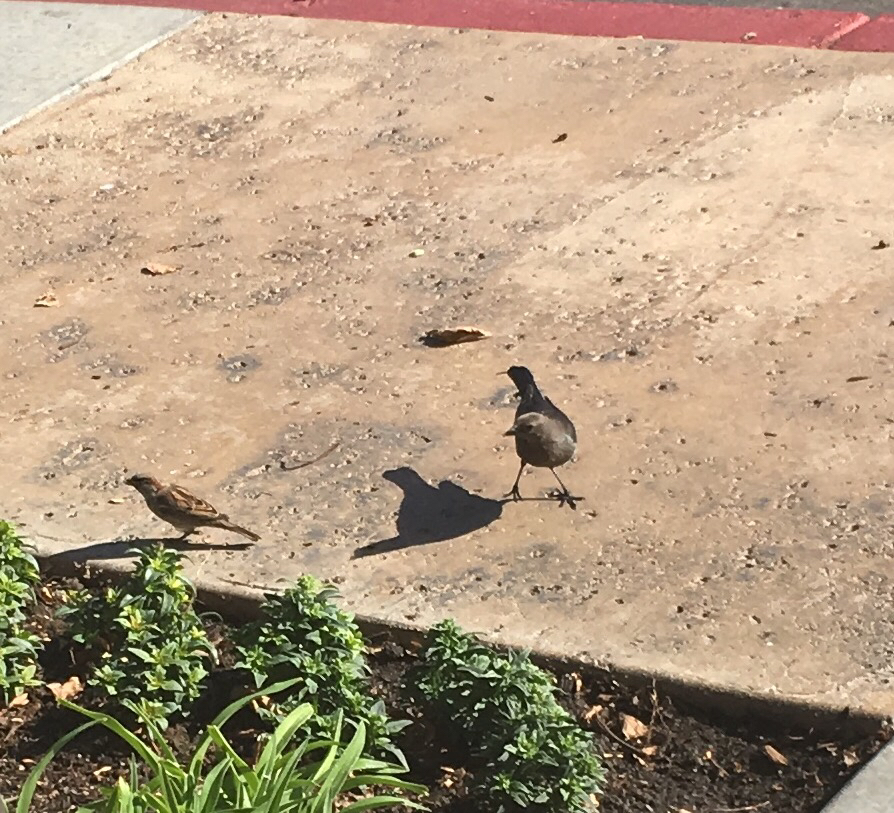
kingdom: Animalia
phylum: Chordata
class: Aves
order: Passeriformes
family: Passeridae
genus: Passer
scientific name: Passer domesticus
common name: House sparrow
